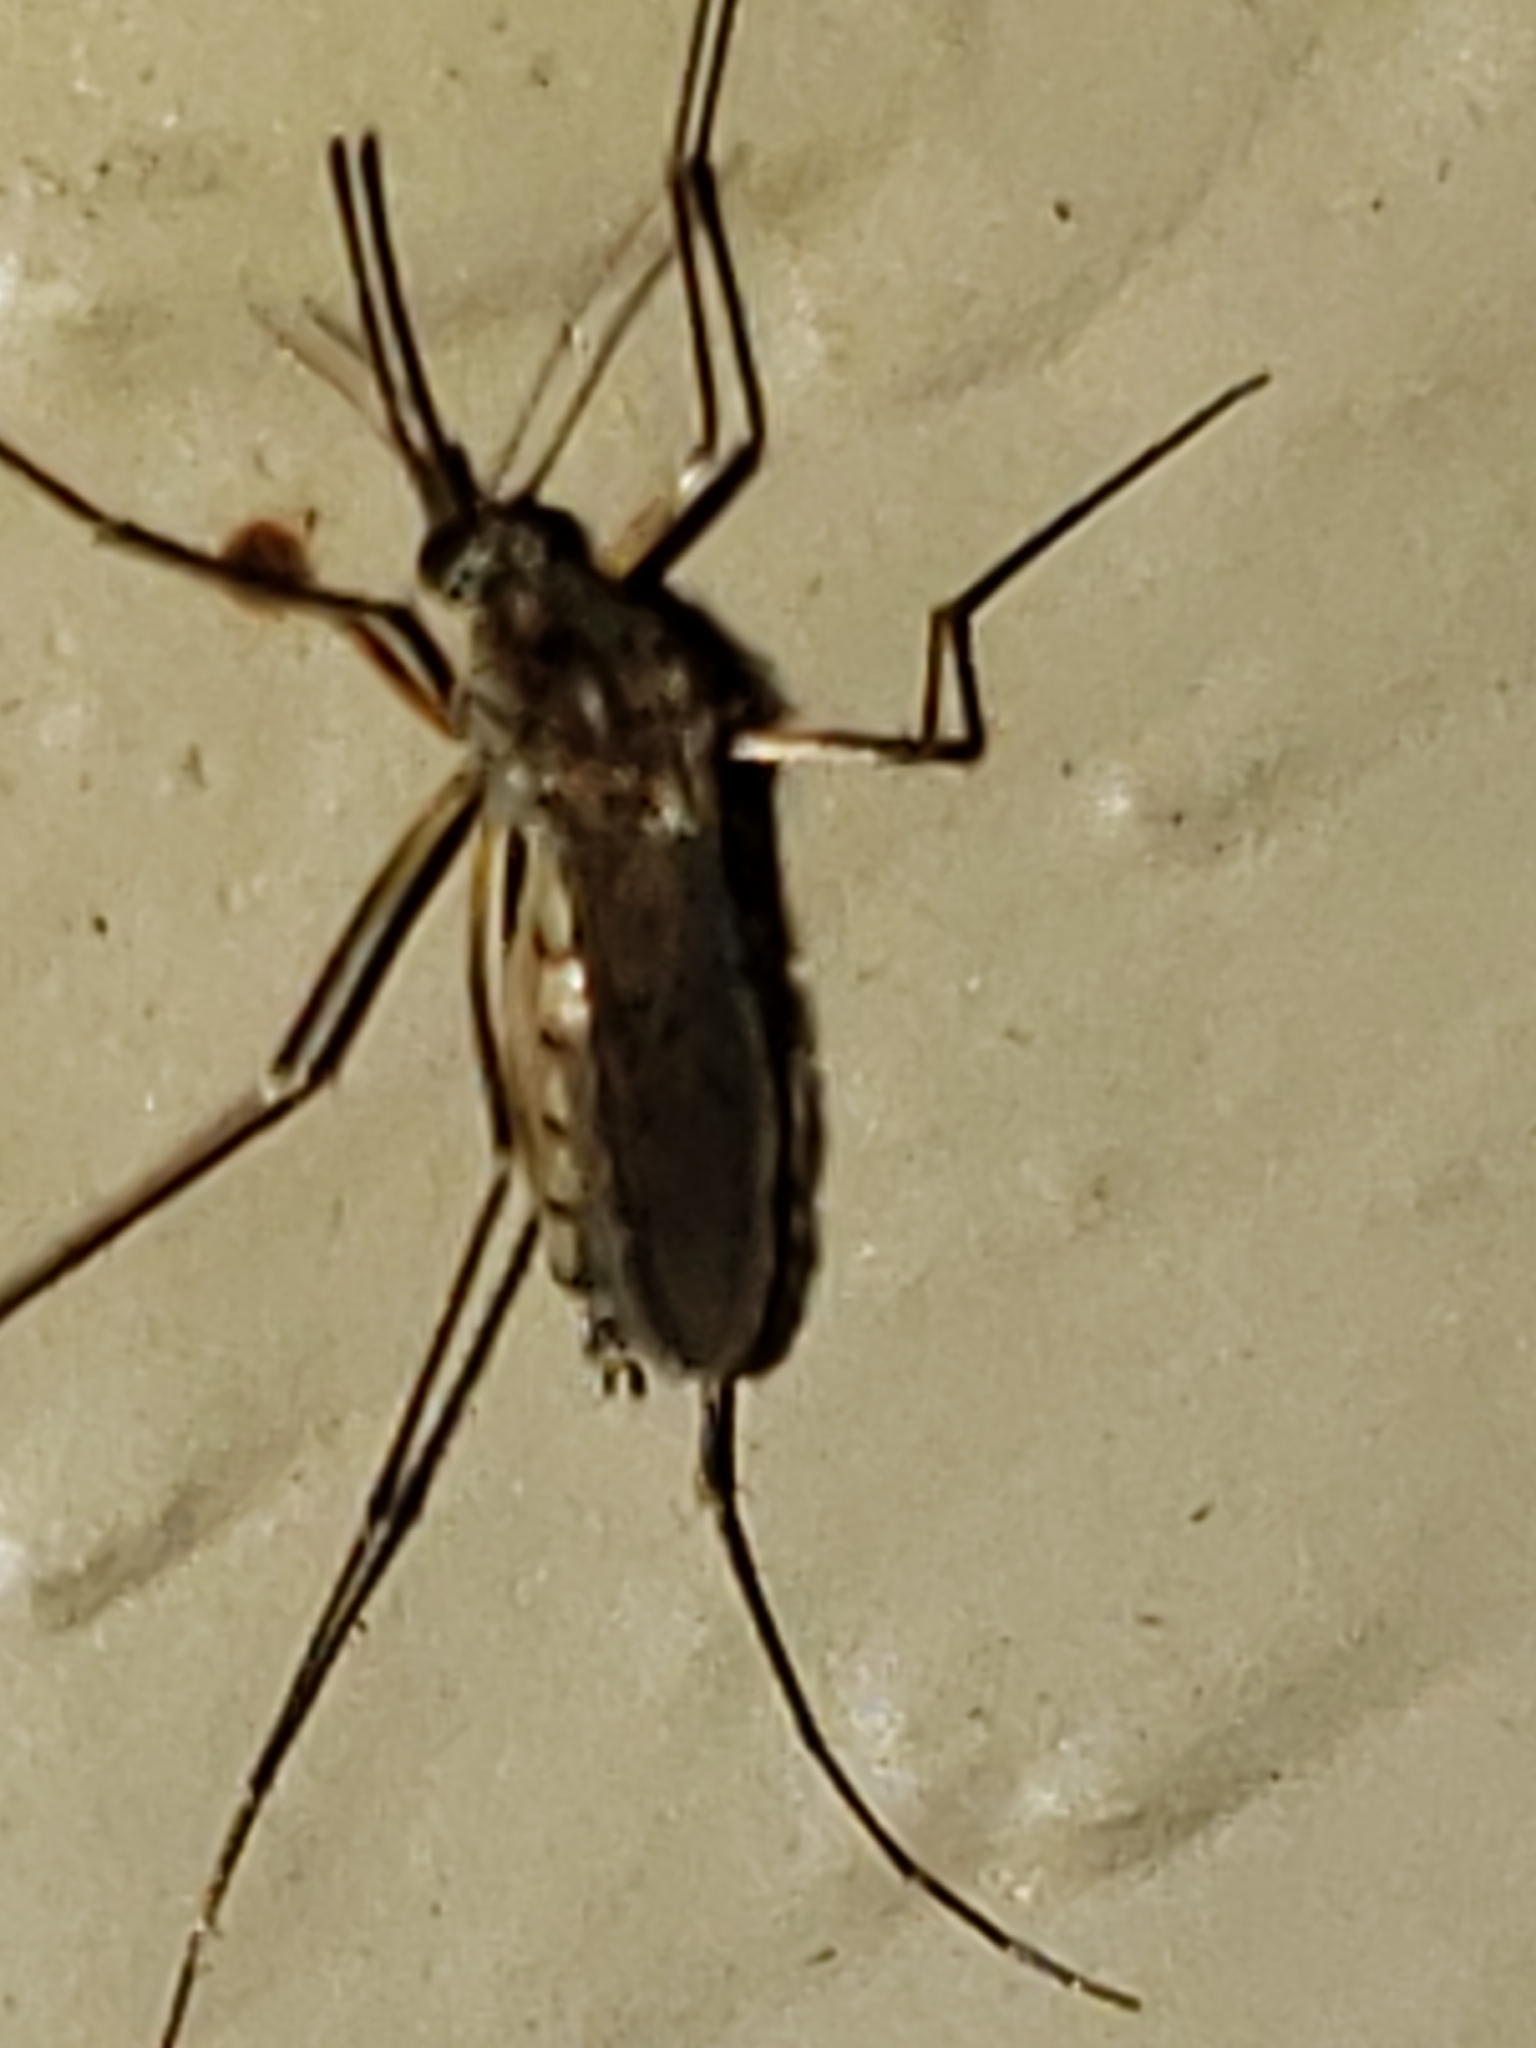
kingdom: Animalia
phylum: Arthropoda
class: Insecta
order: Diptera
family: Culicidae
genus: Aedes
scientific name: Aedes vexans
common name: Inland floodwater mosquito
